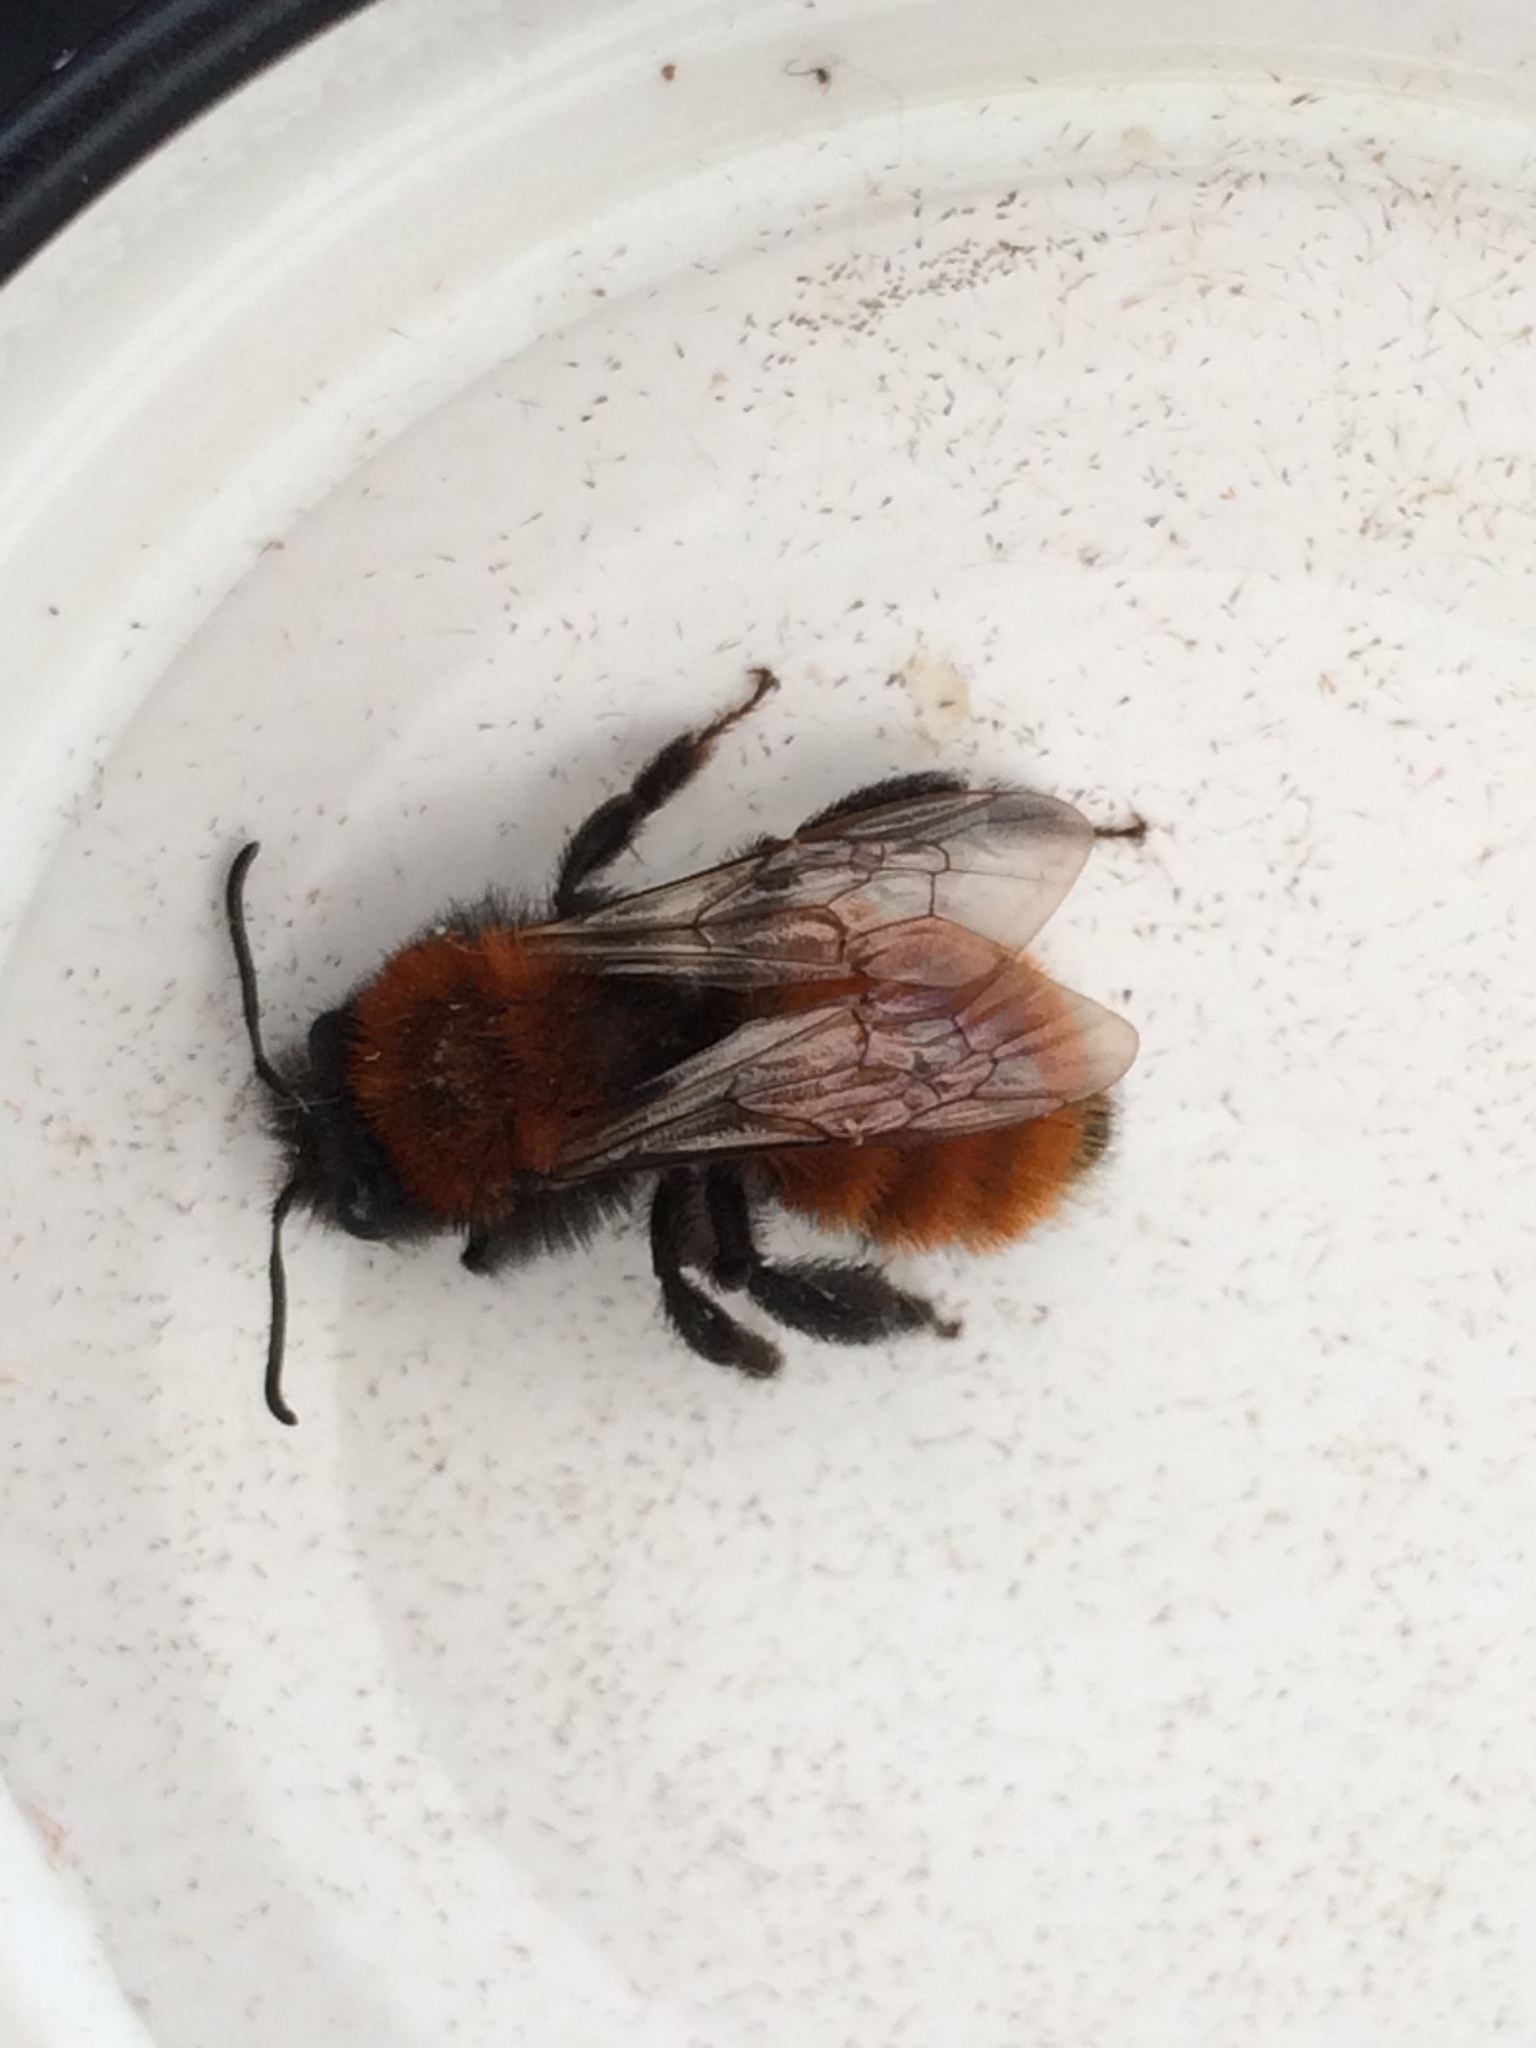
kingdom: Animalia
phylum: Arthropoda
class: Insecta
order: Hymenoptera
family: Andrenidae
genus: Andrena
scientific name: Andrena fulva
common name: Tawny mining bee
